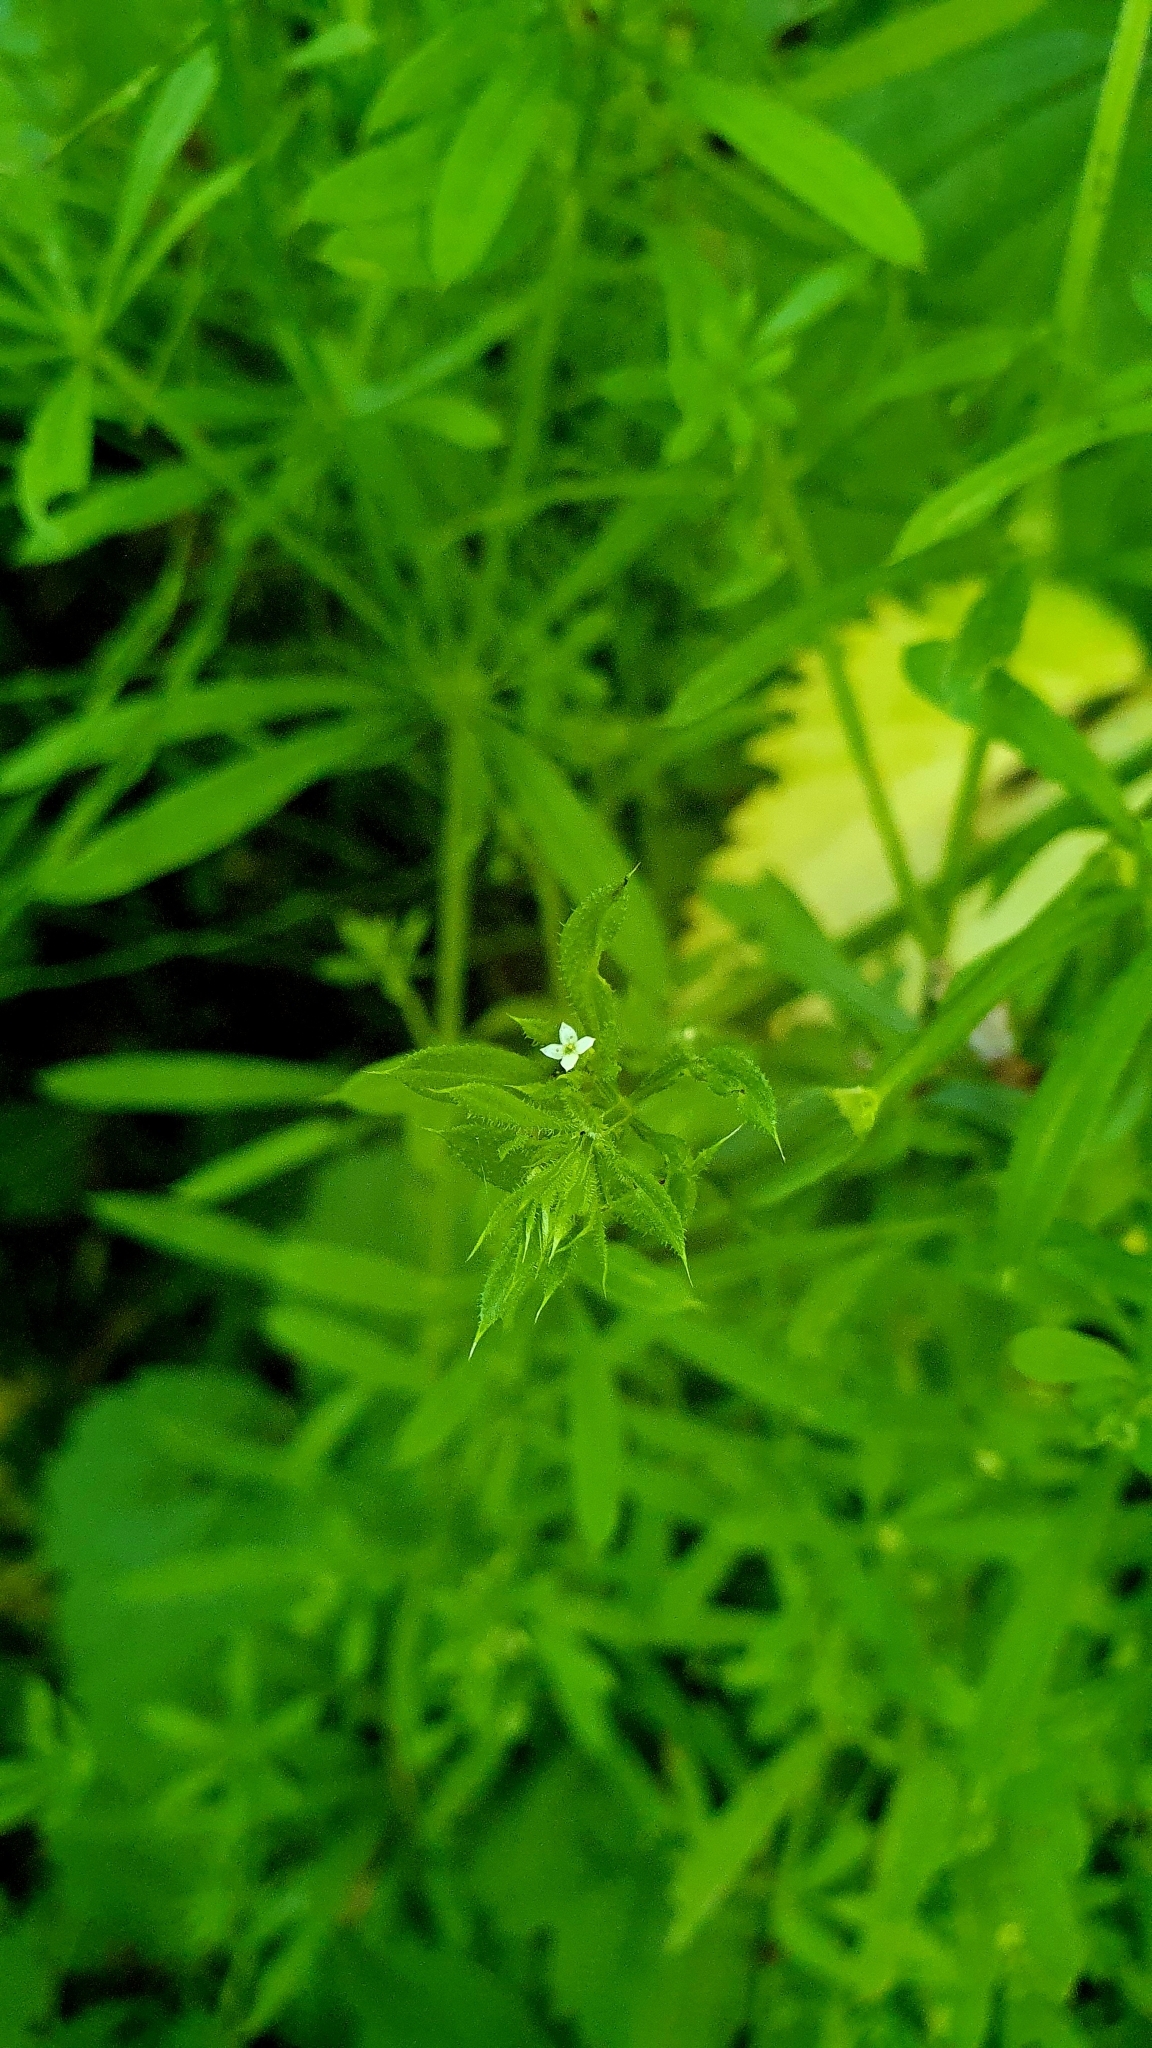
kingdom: Plantae
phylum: Tracheophyta
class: Magnoliopsida
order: Gentianales
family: Rubiaceae
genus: Galium
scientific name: Galium aparine
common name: Cleavers
